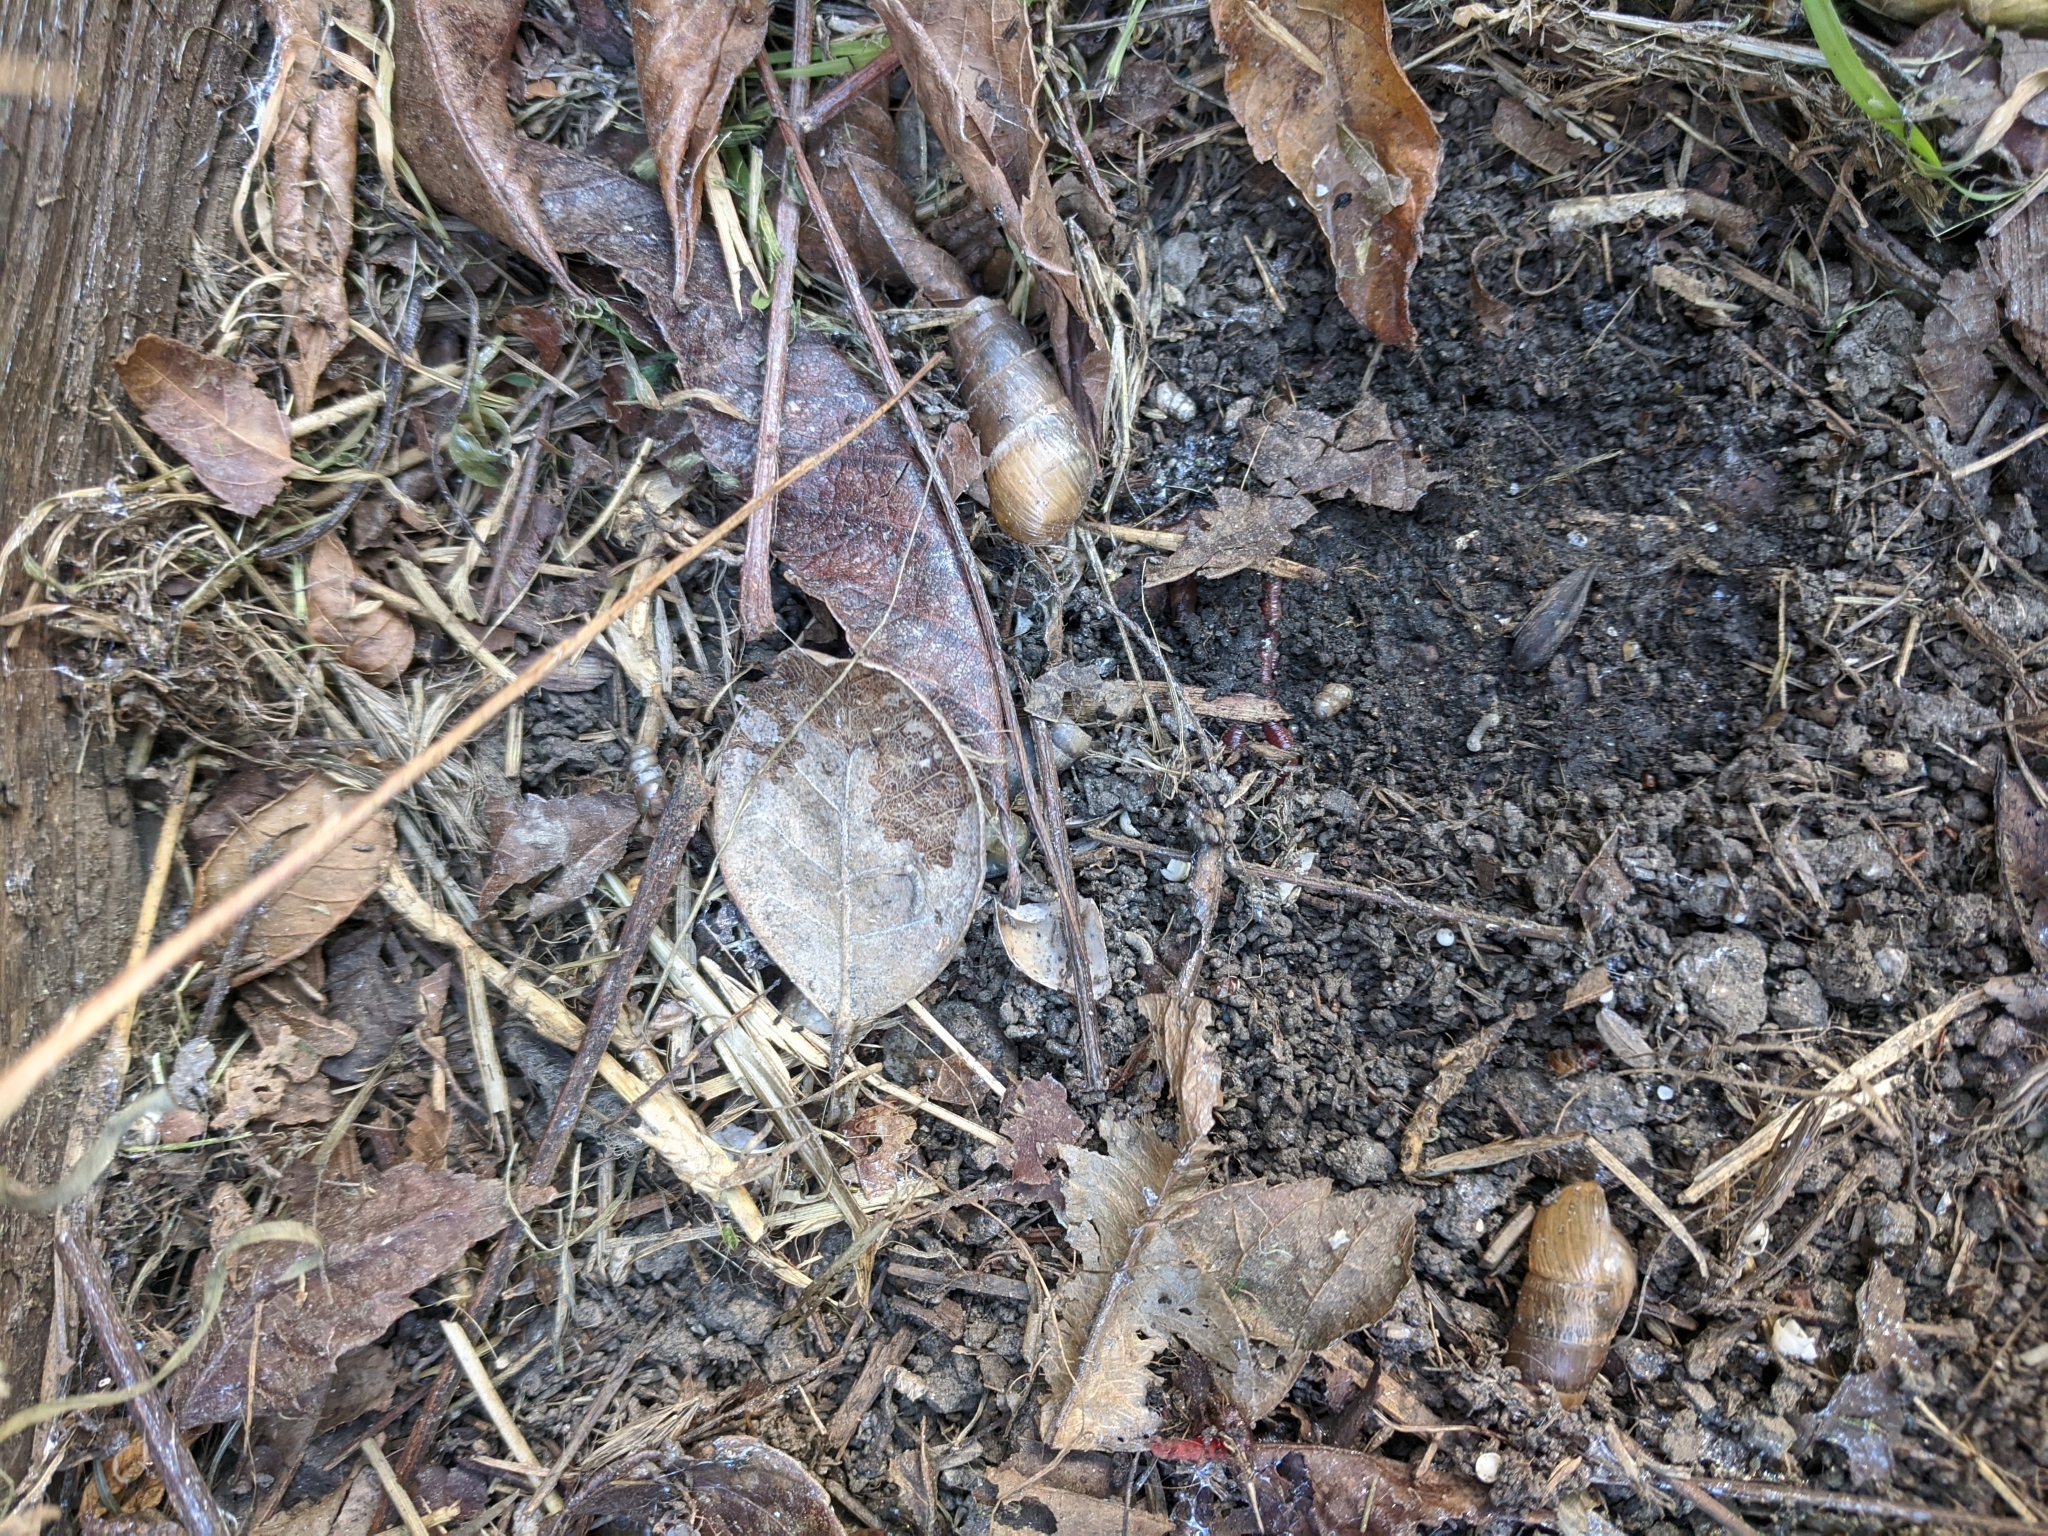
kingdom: Animalia
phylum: Mollusca
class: Gastropoda
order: Stylommatophora
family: Achatinidae
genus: Rumina
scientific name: Rumina decollata
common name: Decollate snail
